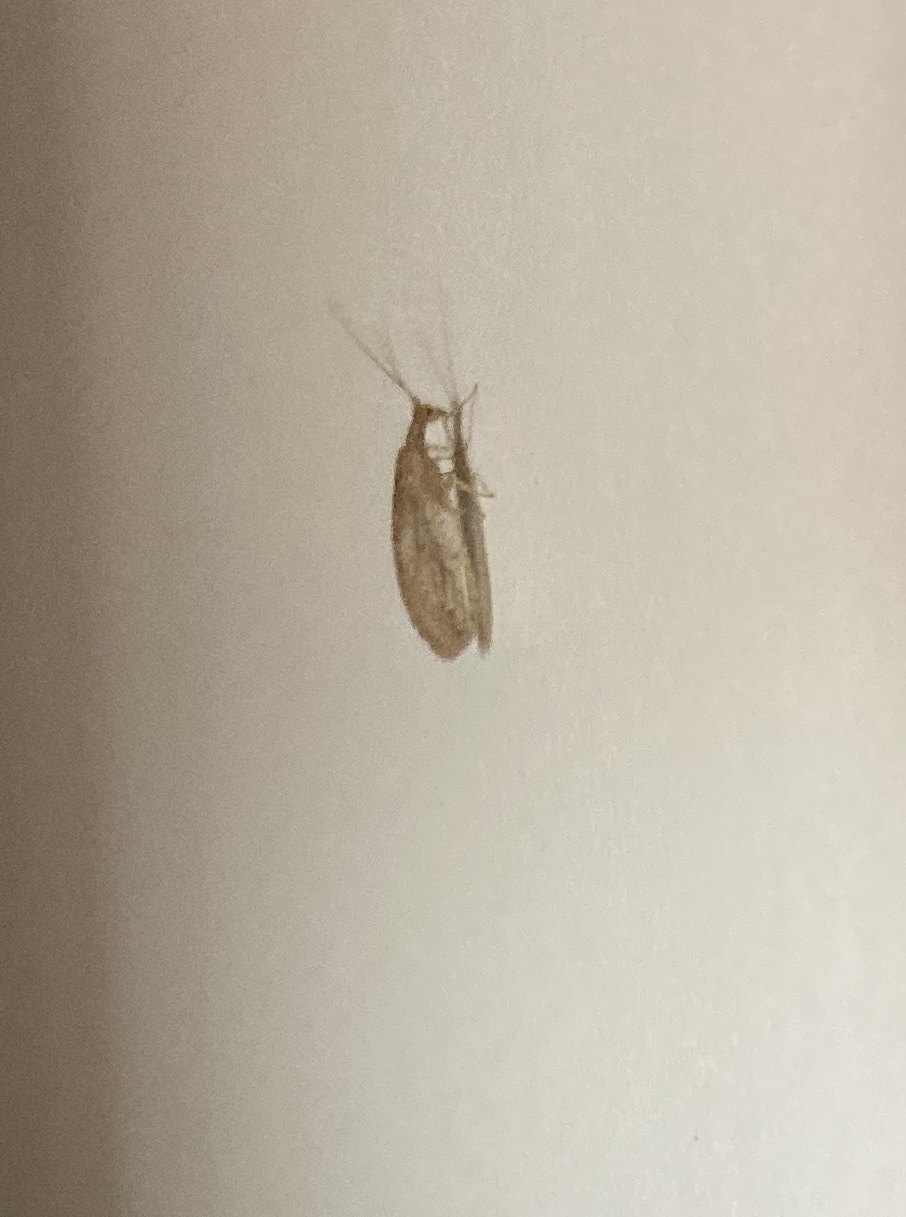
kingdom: Animalia
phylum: Arthropoda
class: Insecta
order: Neuroptera
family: Hemerobiidae
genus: Micromus
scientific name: Micromus tasmaniae
